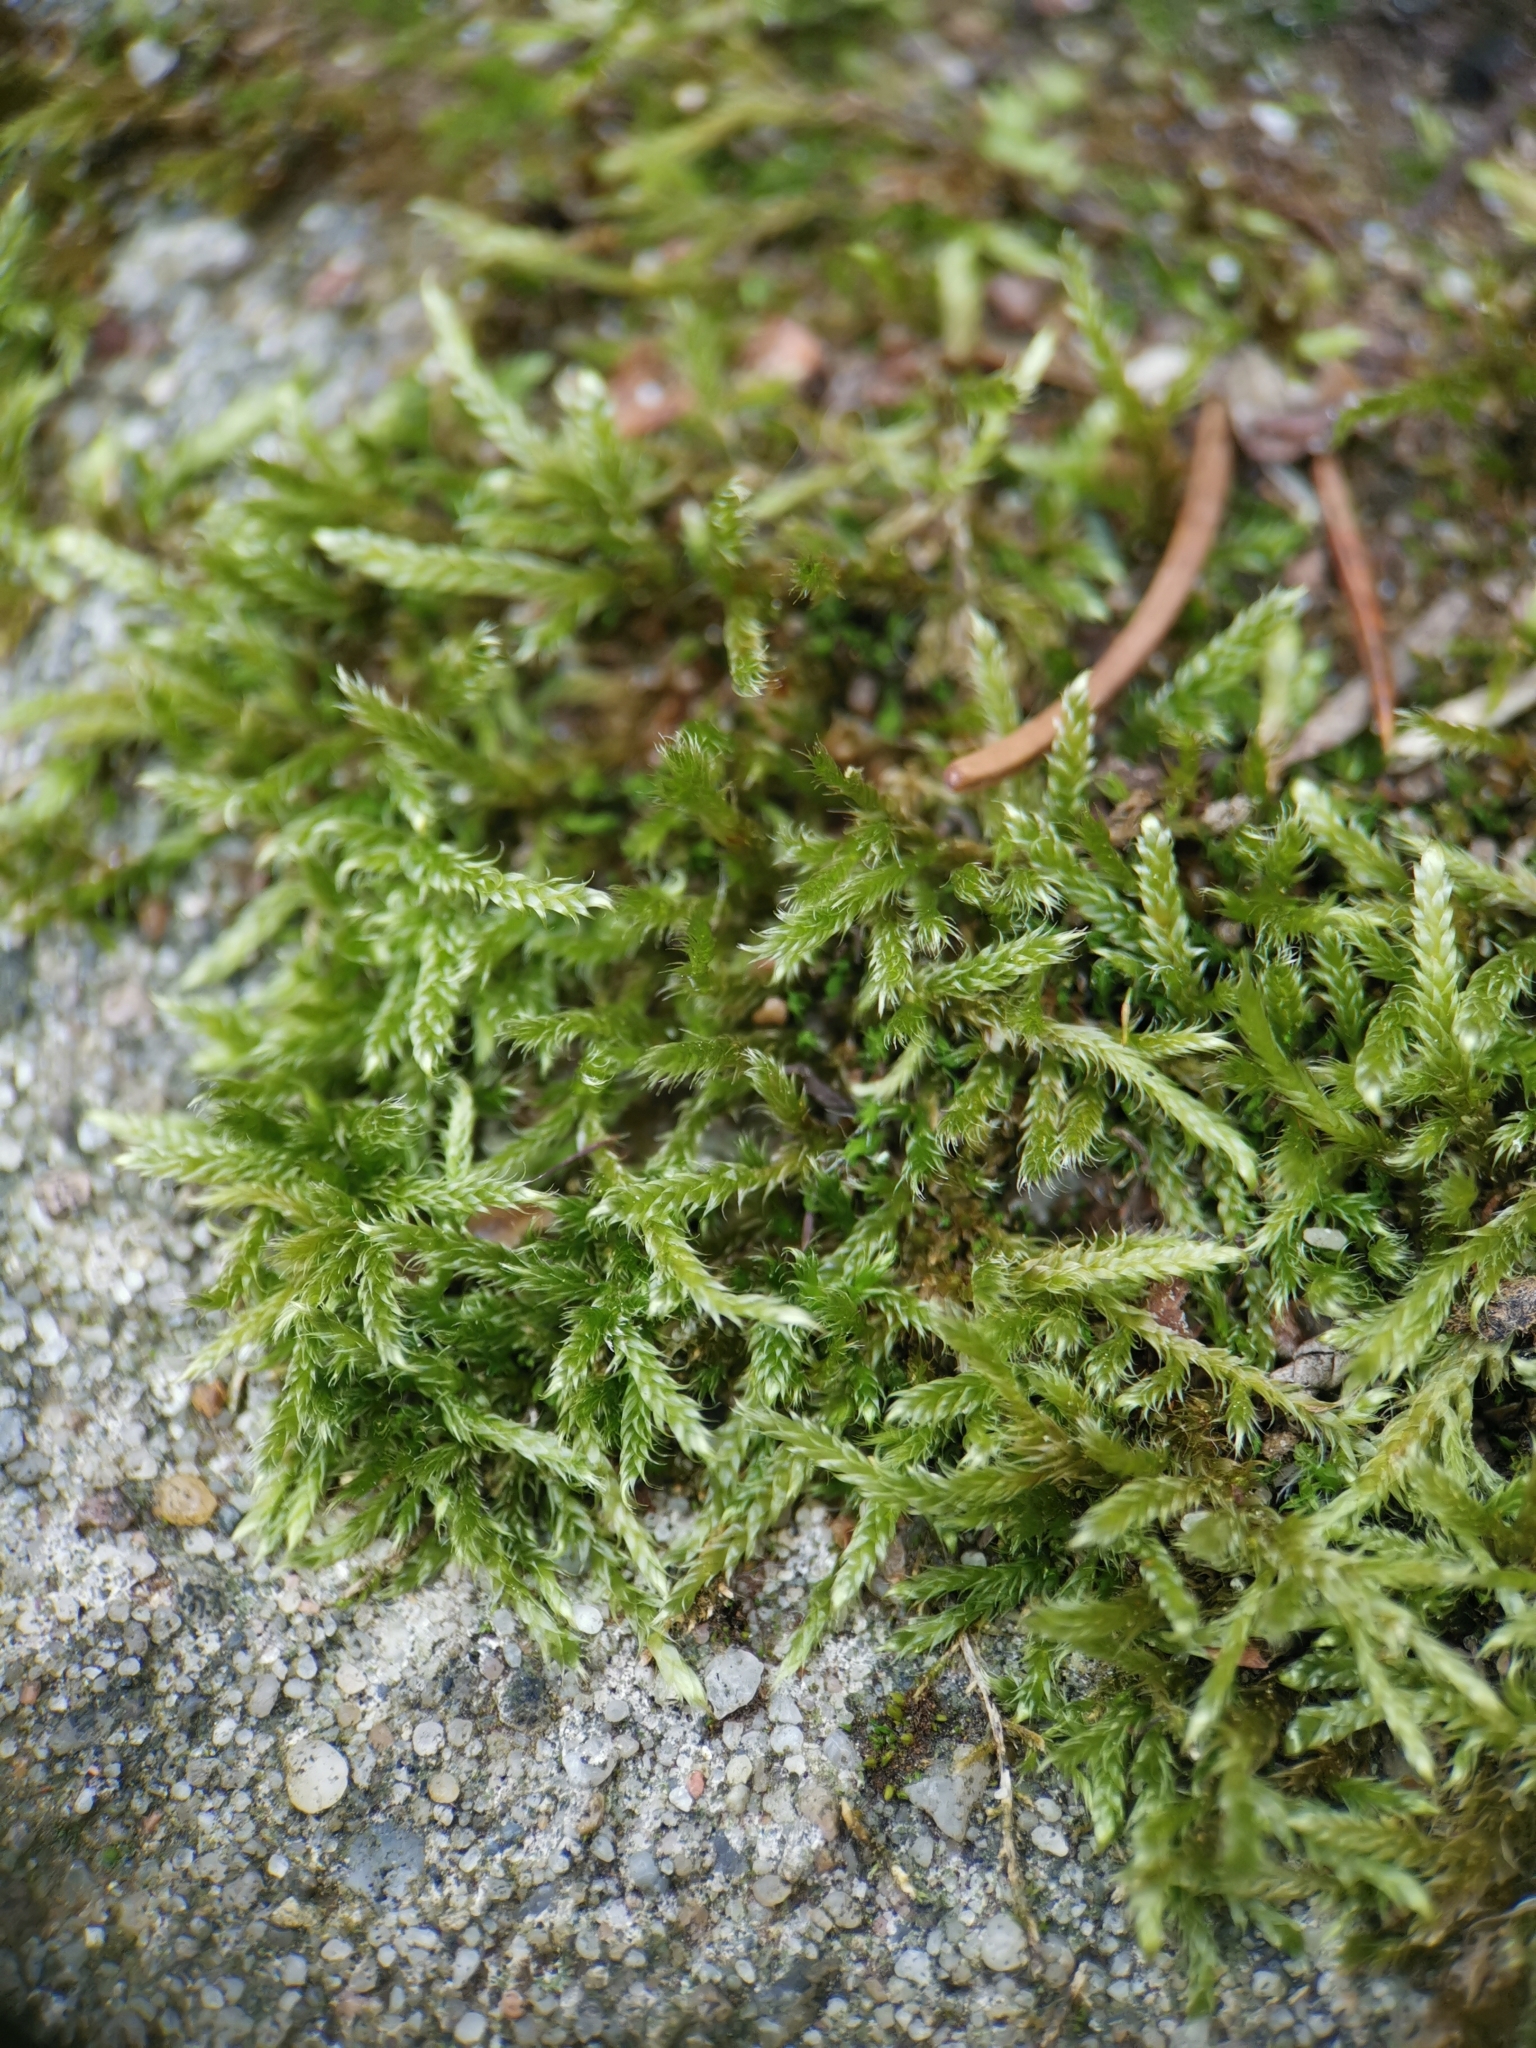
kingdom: Plantae
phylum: Bryophyta
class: Bryopsida
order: Hypnales
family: Hypnaceae
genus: Hypnum
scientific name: Hypnum cupressiforme
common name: Cypress-leaved plait-moss
